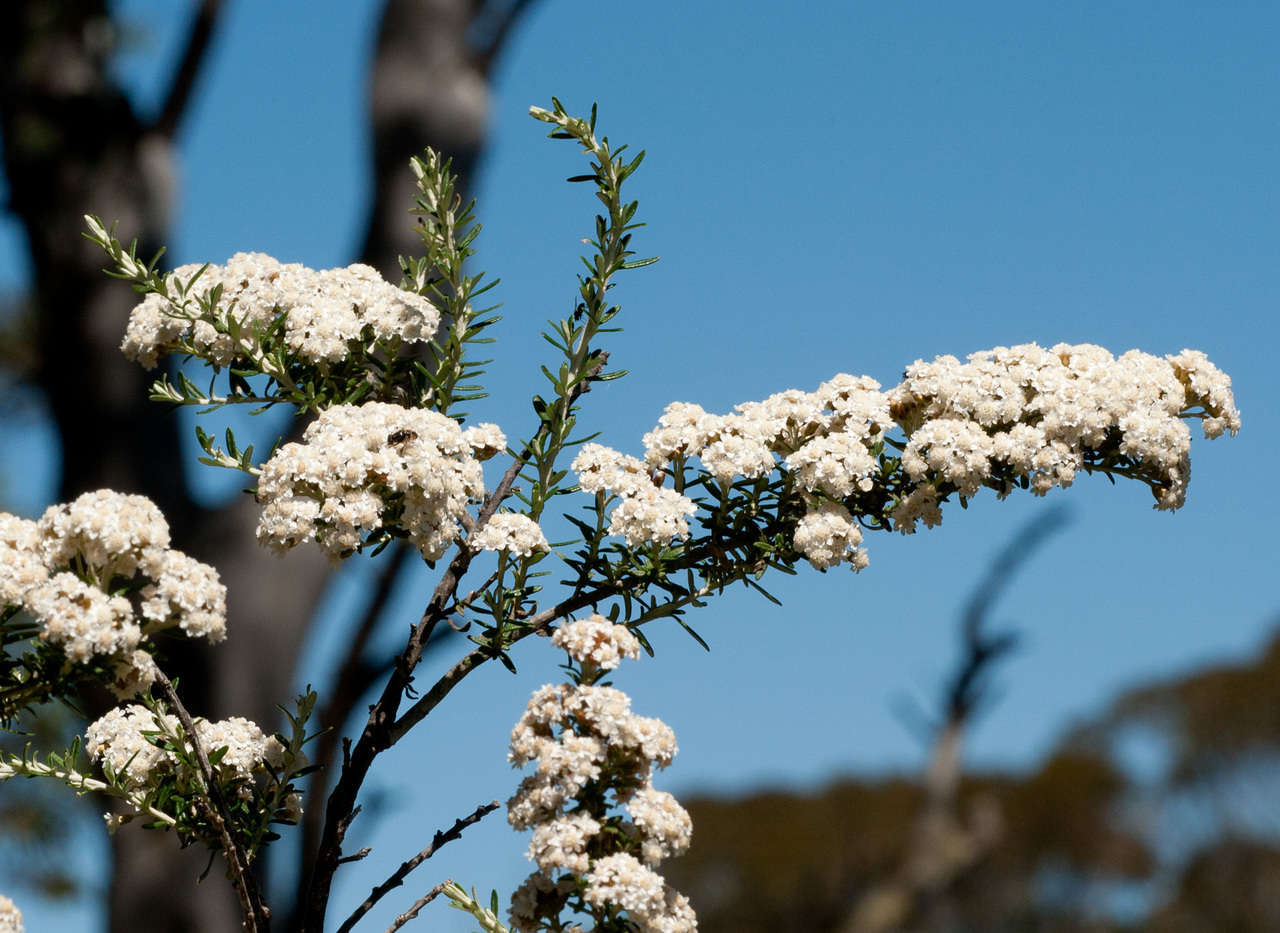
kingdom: Plantae
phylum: Tracheophyta
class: Magnoliopsida
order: Asterales
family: Asteraceae
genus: Ozothamnus
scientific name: Ozothamnus secundiflorus
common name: Cascade everlasting
